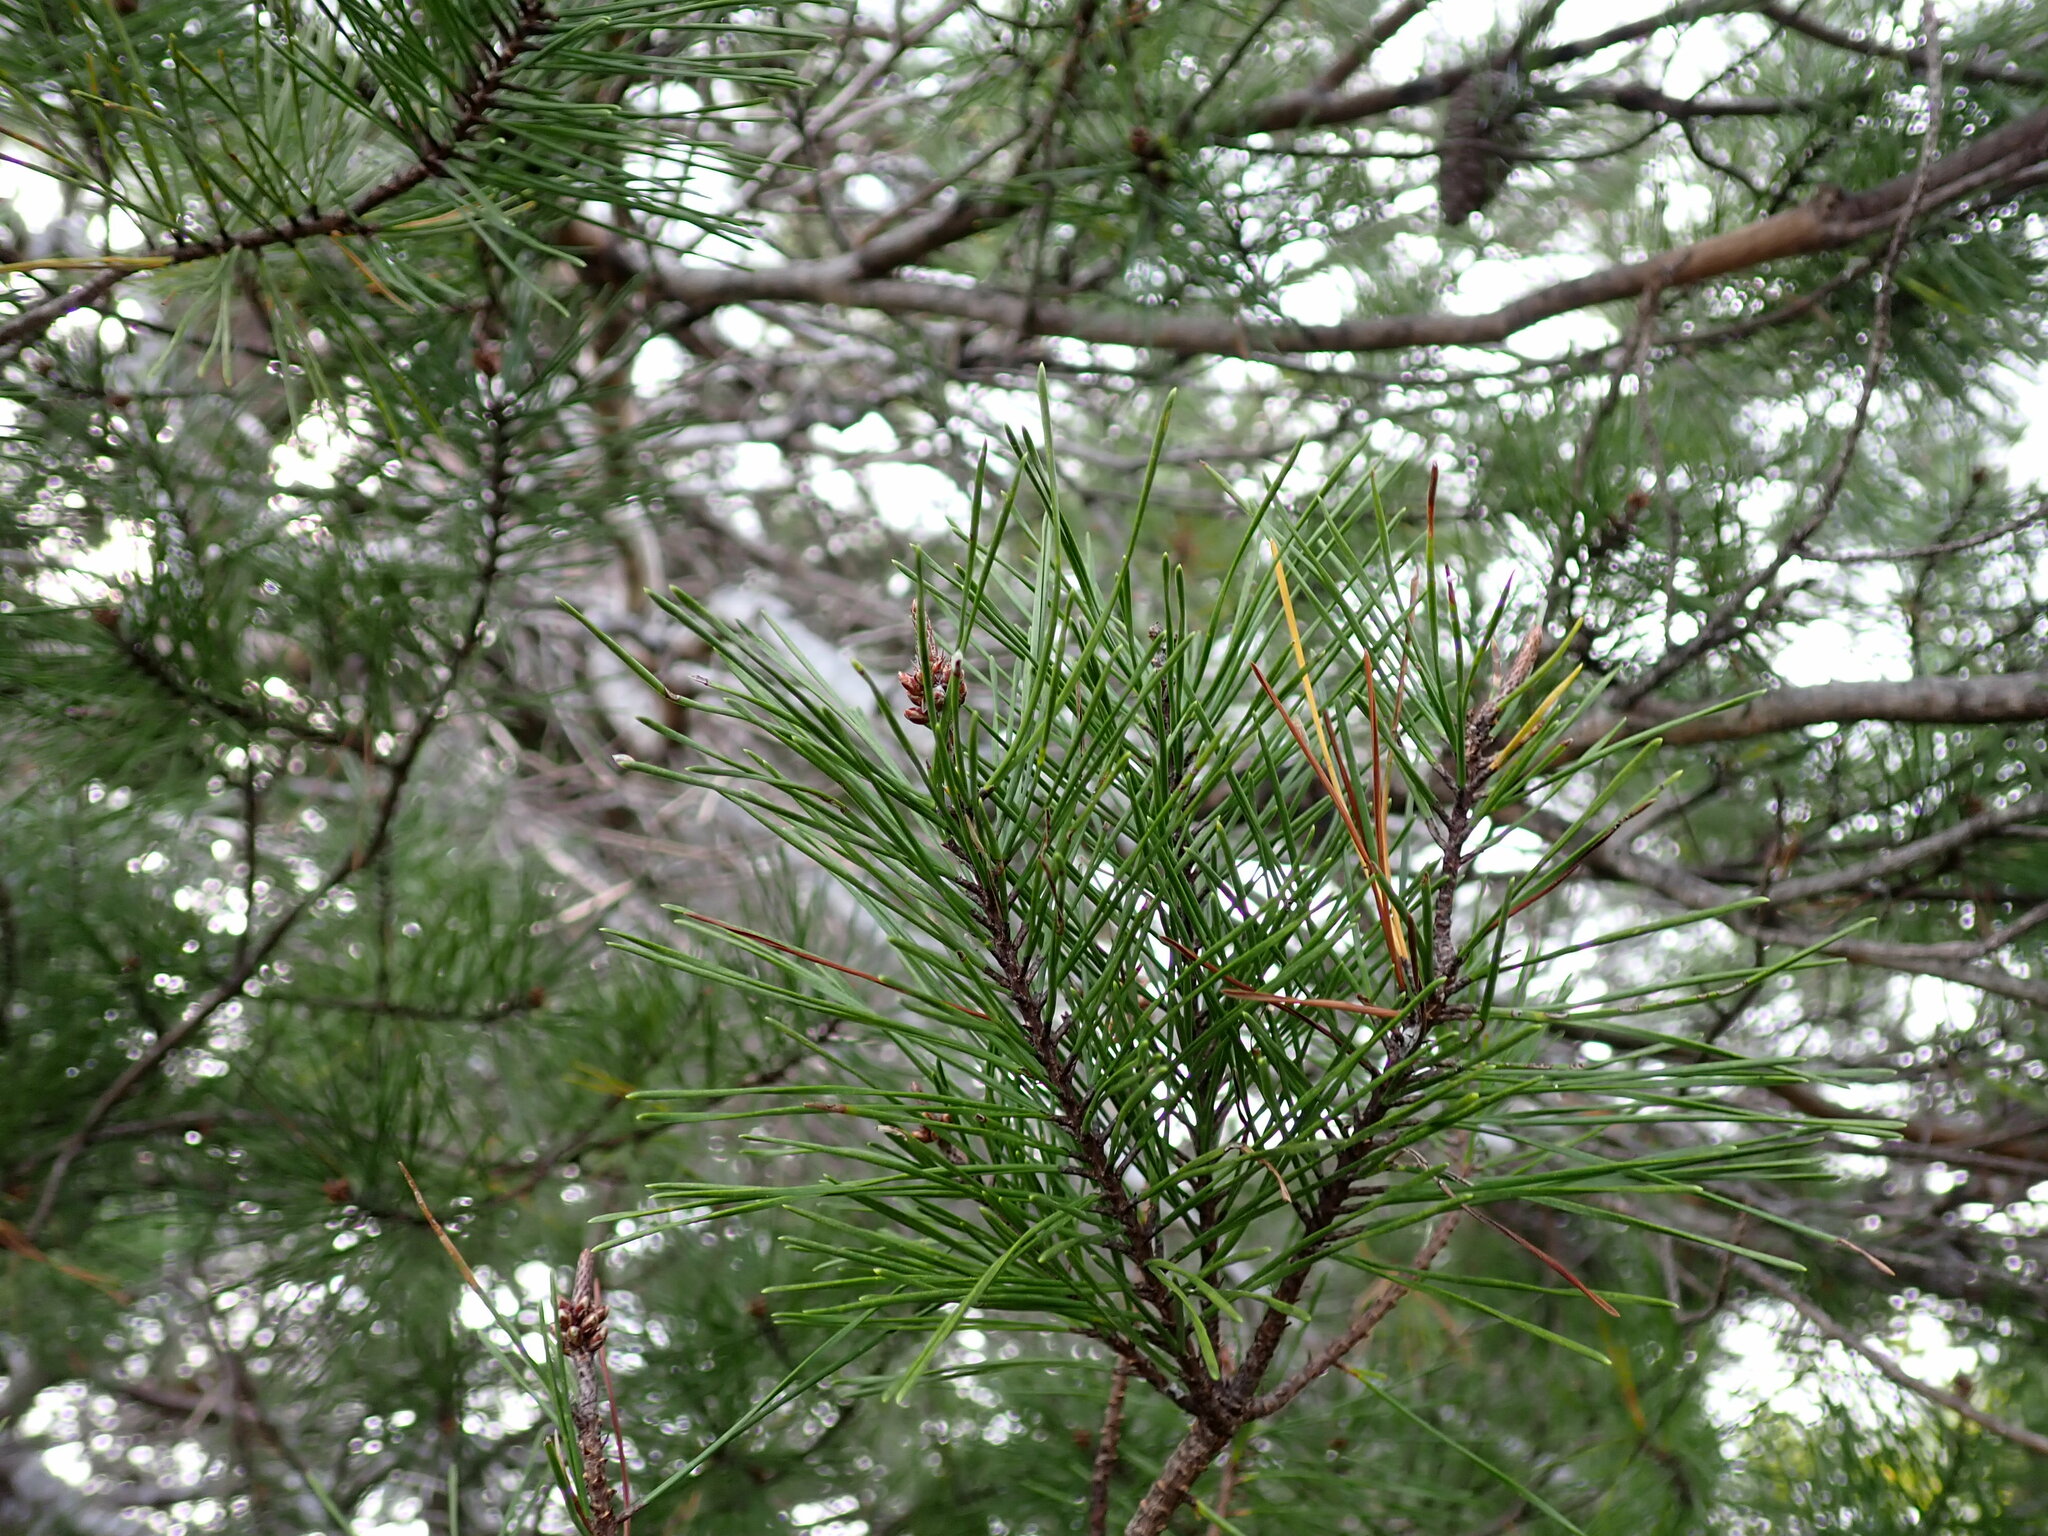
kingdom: Plantae
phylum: Tracheophyta
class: Pinopsida
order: Pinales
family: Pinaceae
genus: Pinus
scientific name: Pinus clausa
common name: Sand pine
